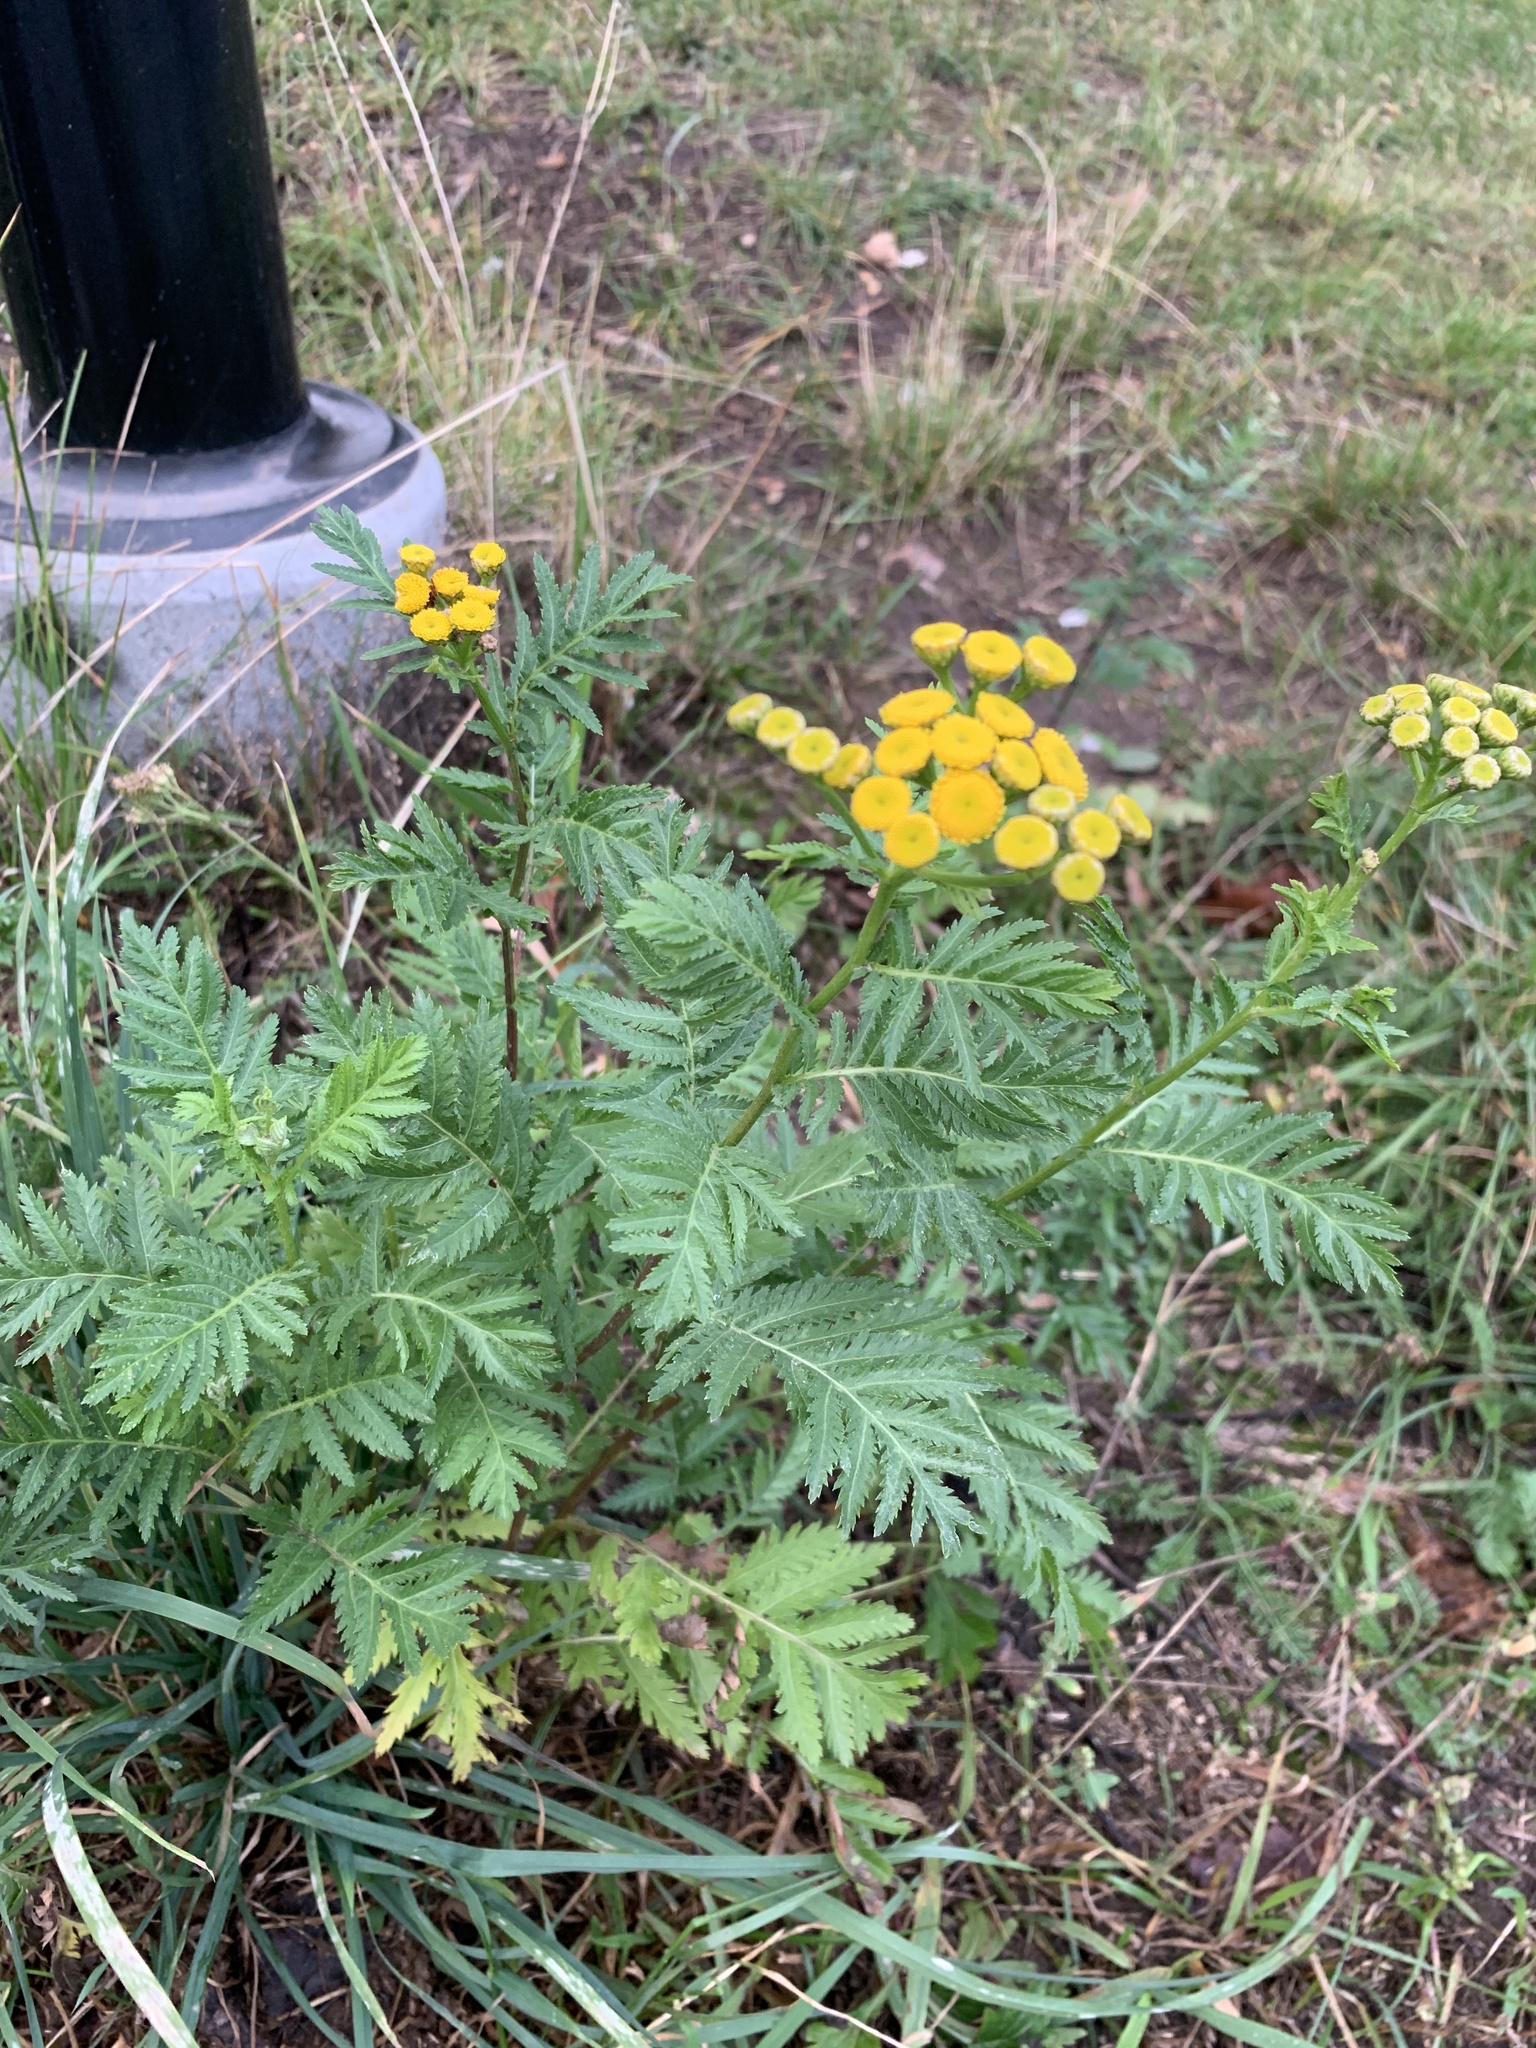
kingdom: Plantae
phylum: Tracheophyta
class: Magnoliopsida
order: Asterales
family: Asteraceae
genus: Tanacetum
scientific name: Tanacetum vulgare
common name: Common tansy
